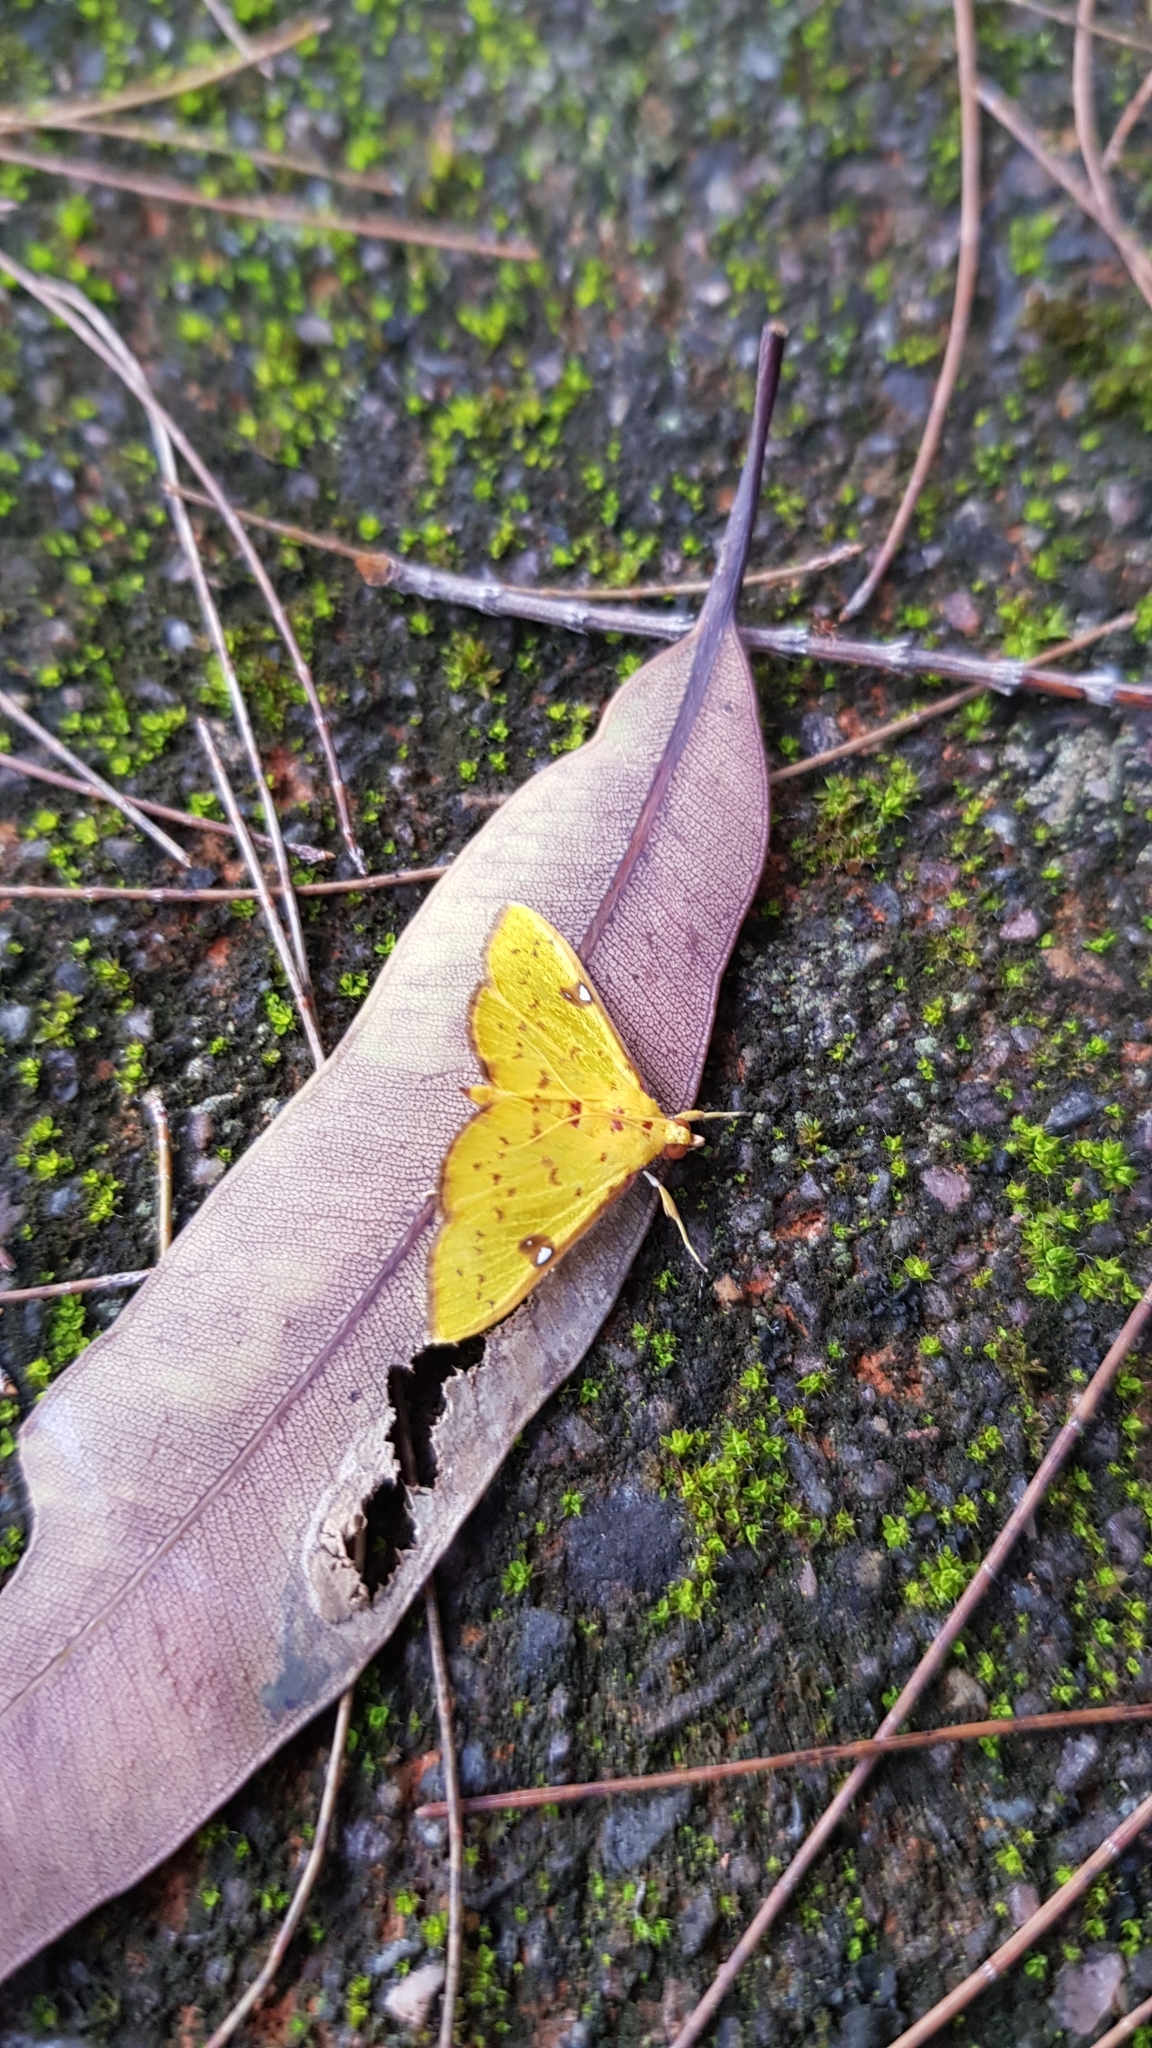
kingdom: Animalia
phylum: Arthropoda
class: Insecta
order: Lepidoptera
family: Crambidae
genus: Archernis
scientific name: Archernis callixantha
